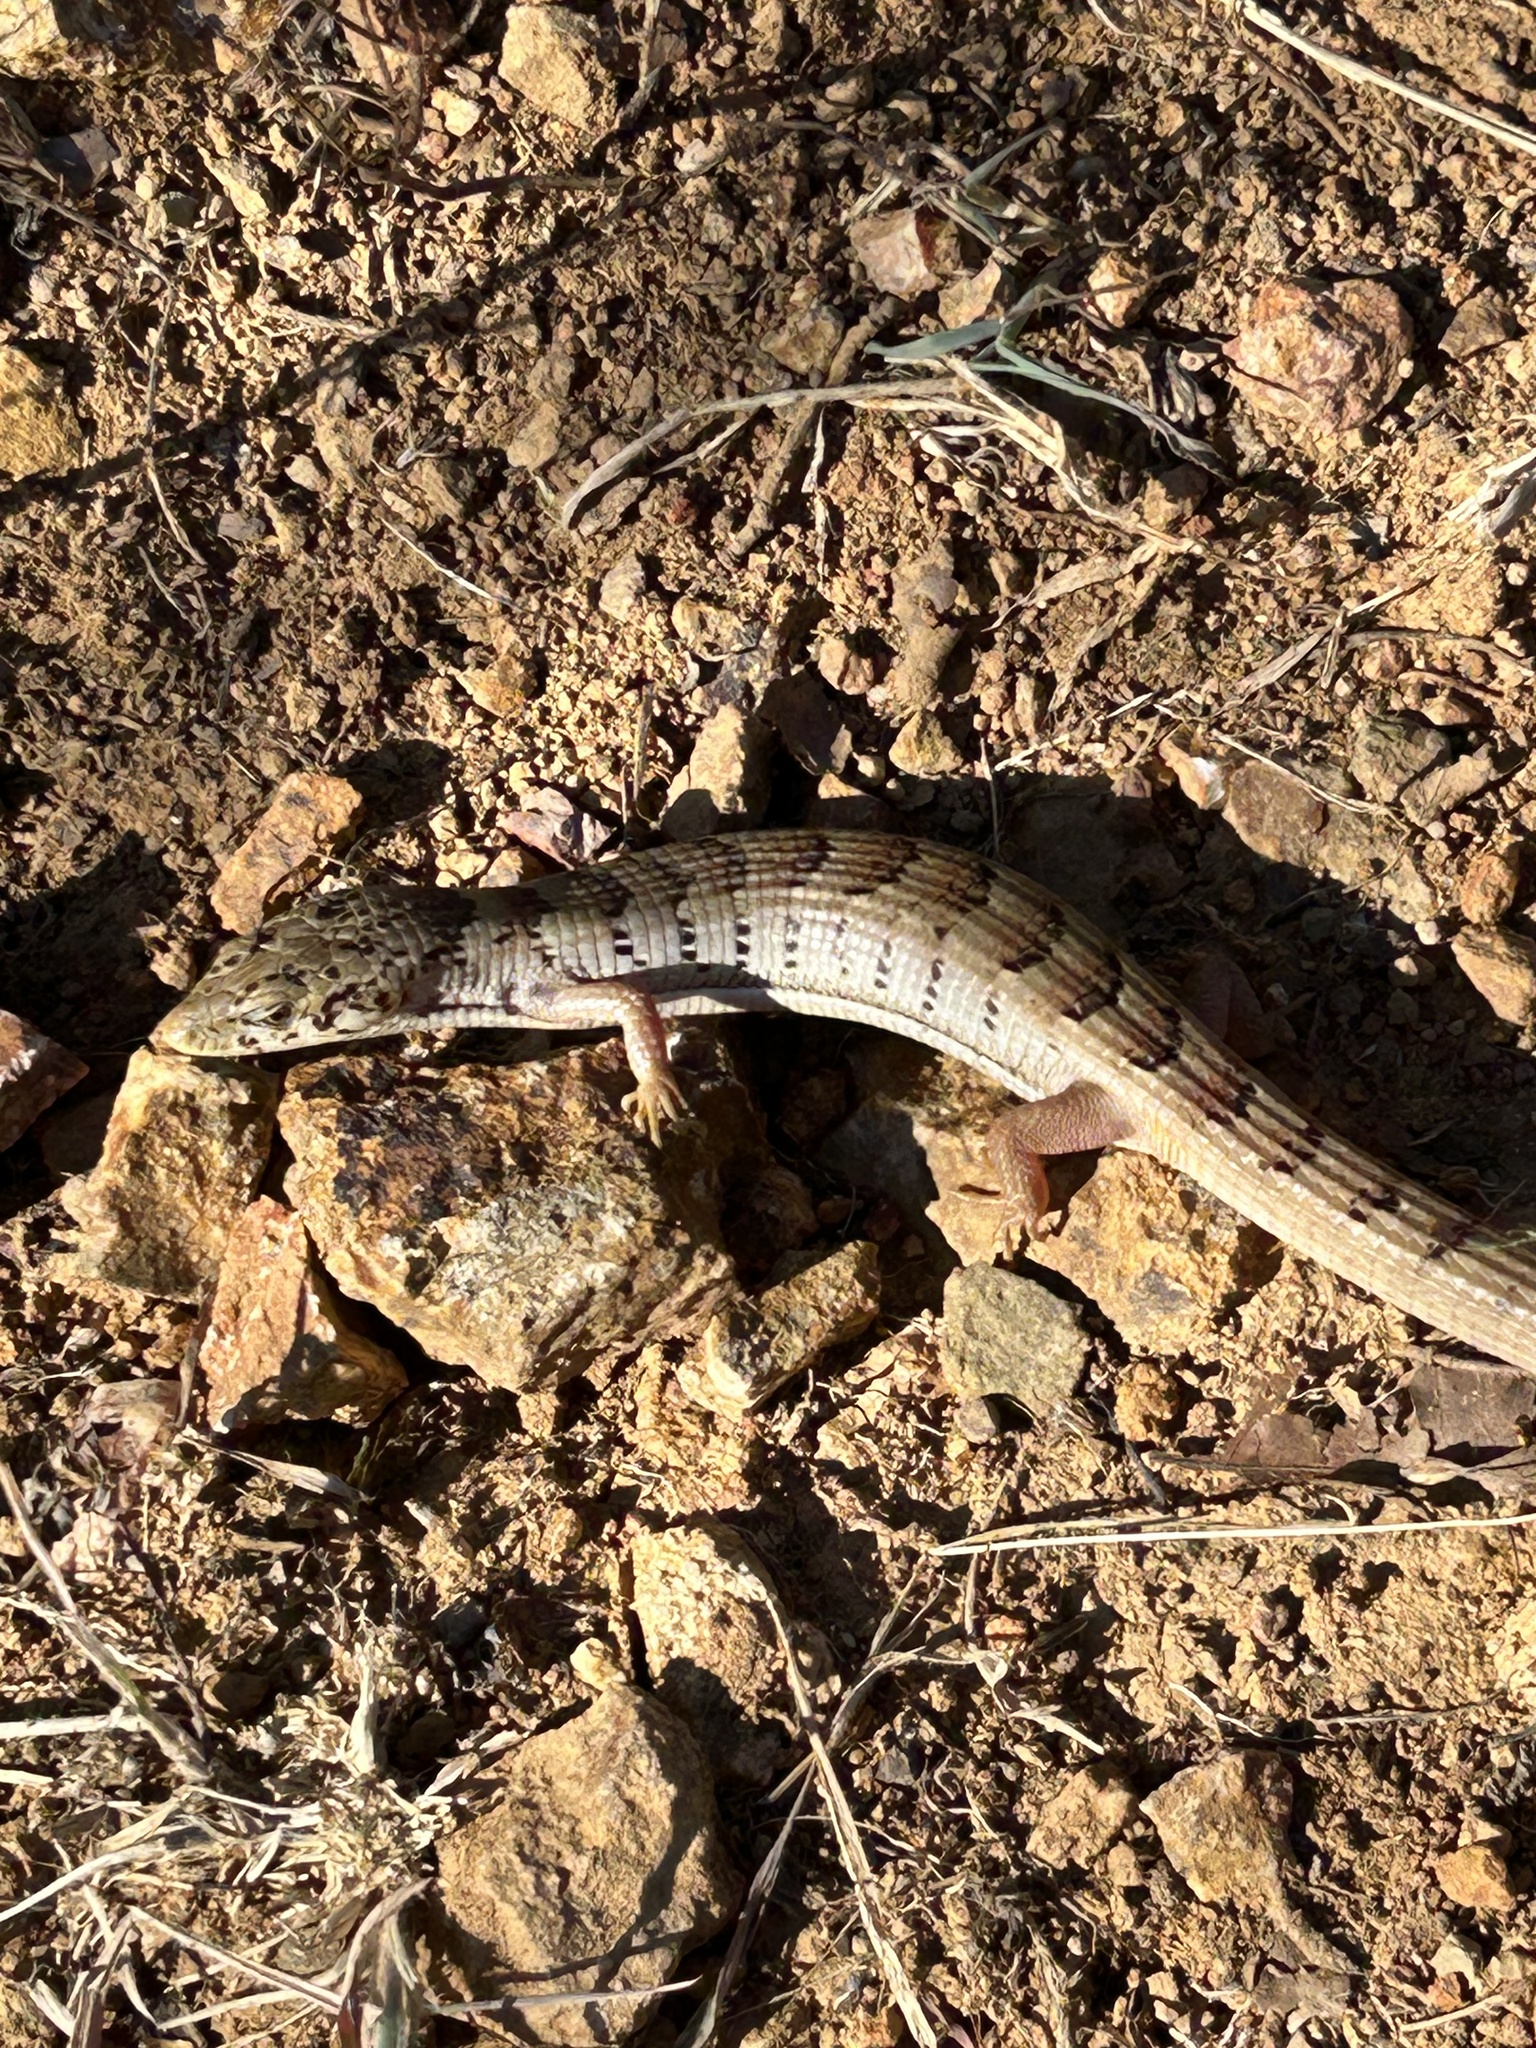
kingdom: Animalia
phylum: Chordata
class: Squamata
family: Anguidae
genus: Elgaria
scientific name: Elgaria kingii
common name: Madrean alligator lizard
